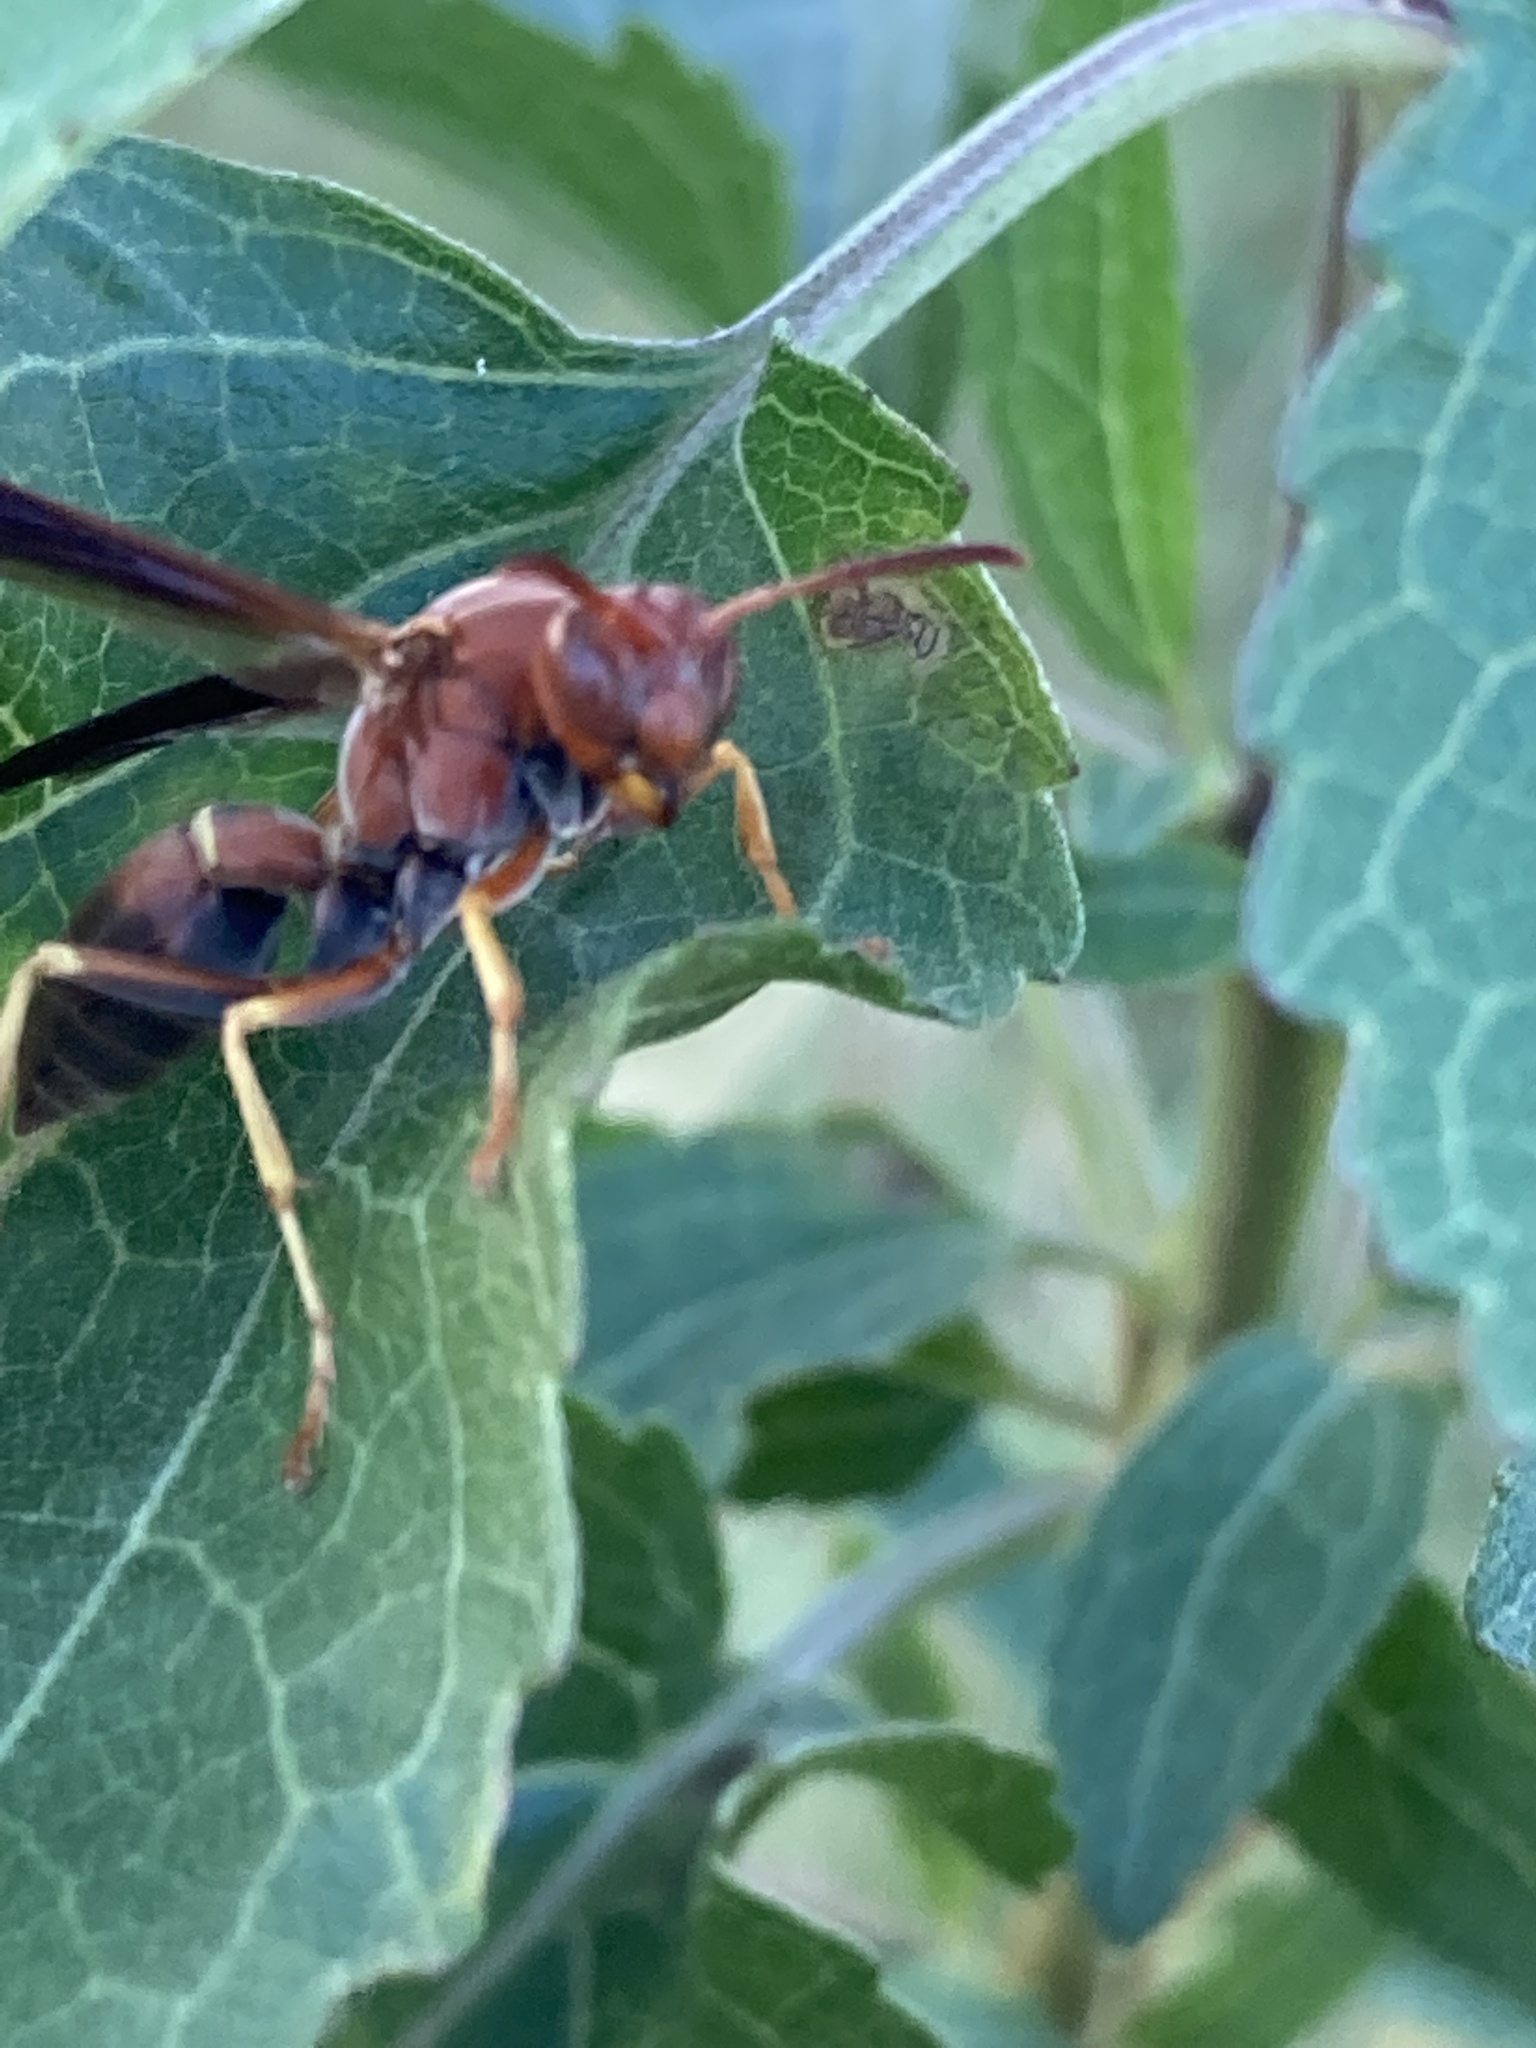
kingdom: Animalia
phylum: Arthropoda
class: Insecta
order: Hymenoptera
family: Eumenidae
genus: Polistes
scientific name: Polistes fuscatus
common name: Dark paper wasp
